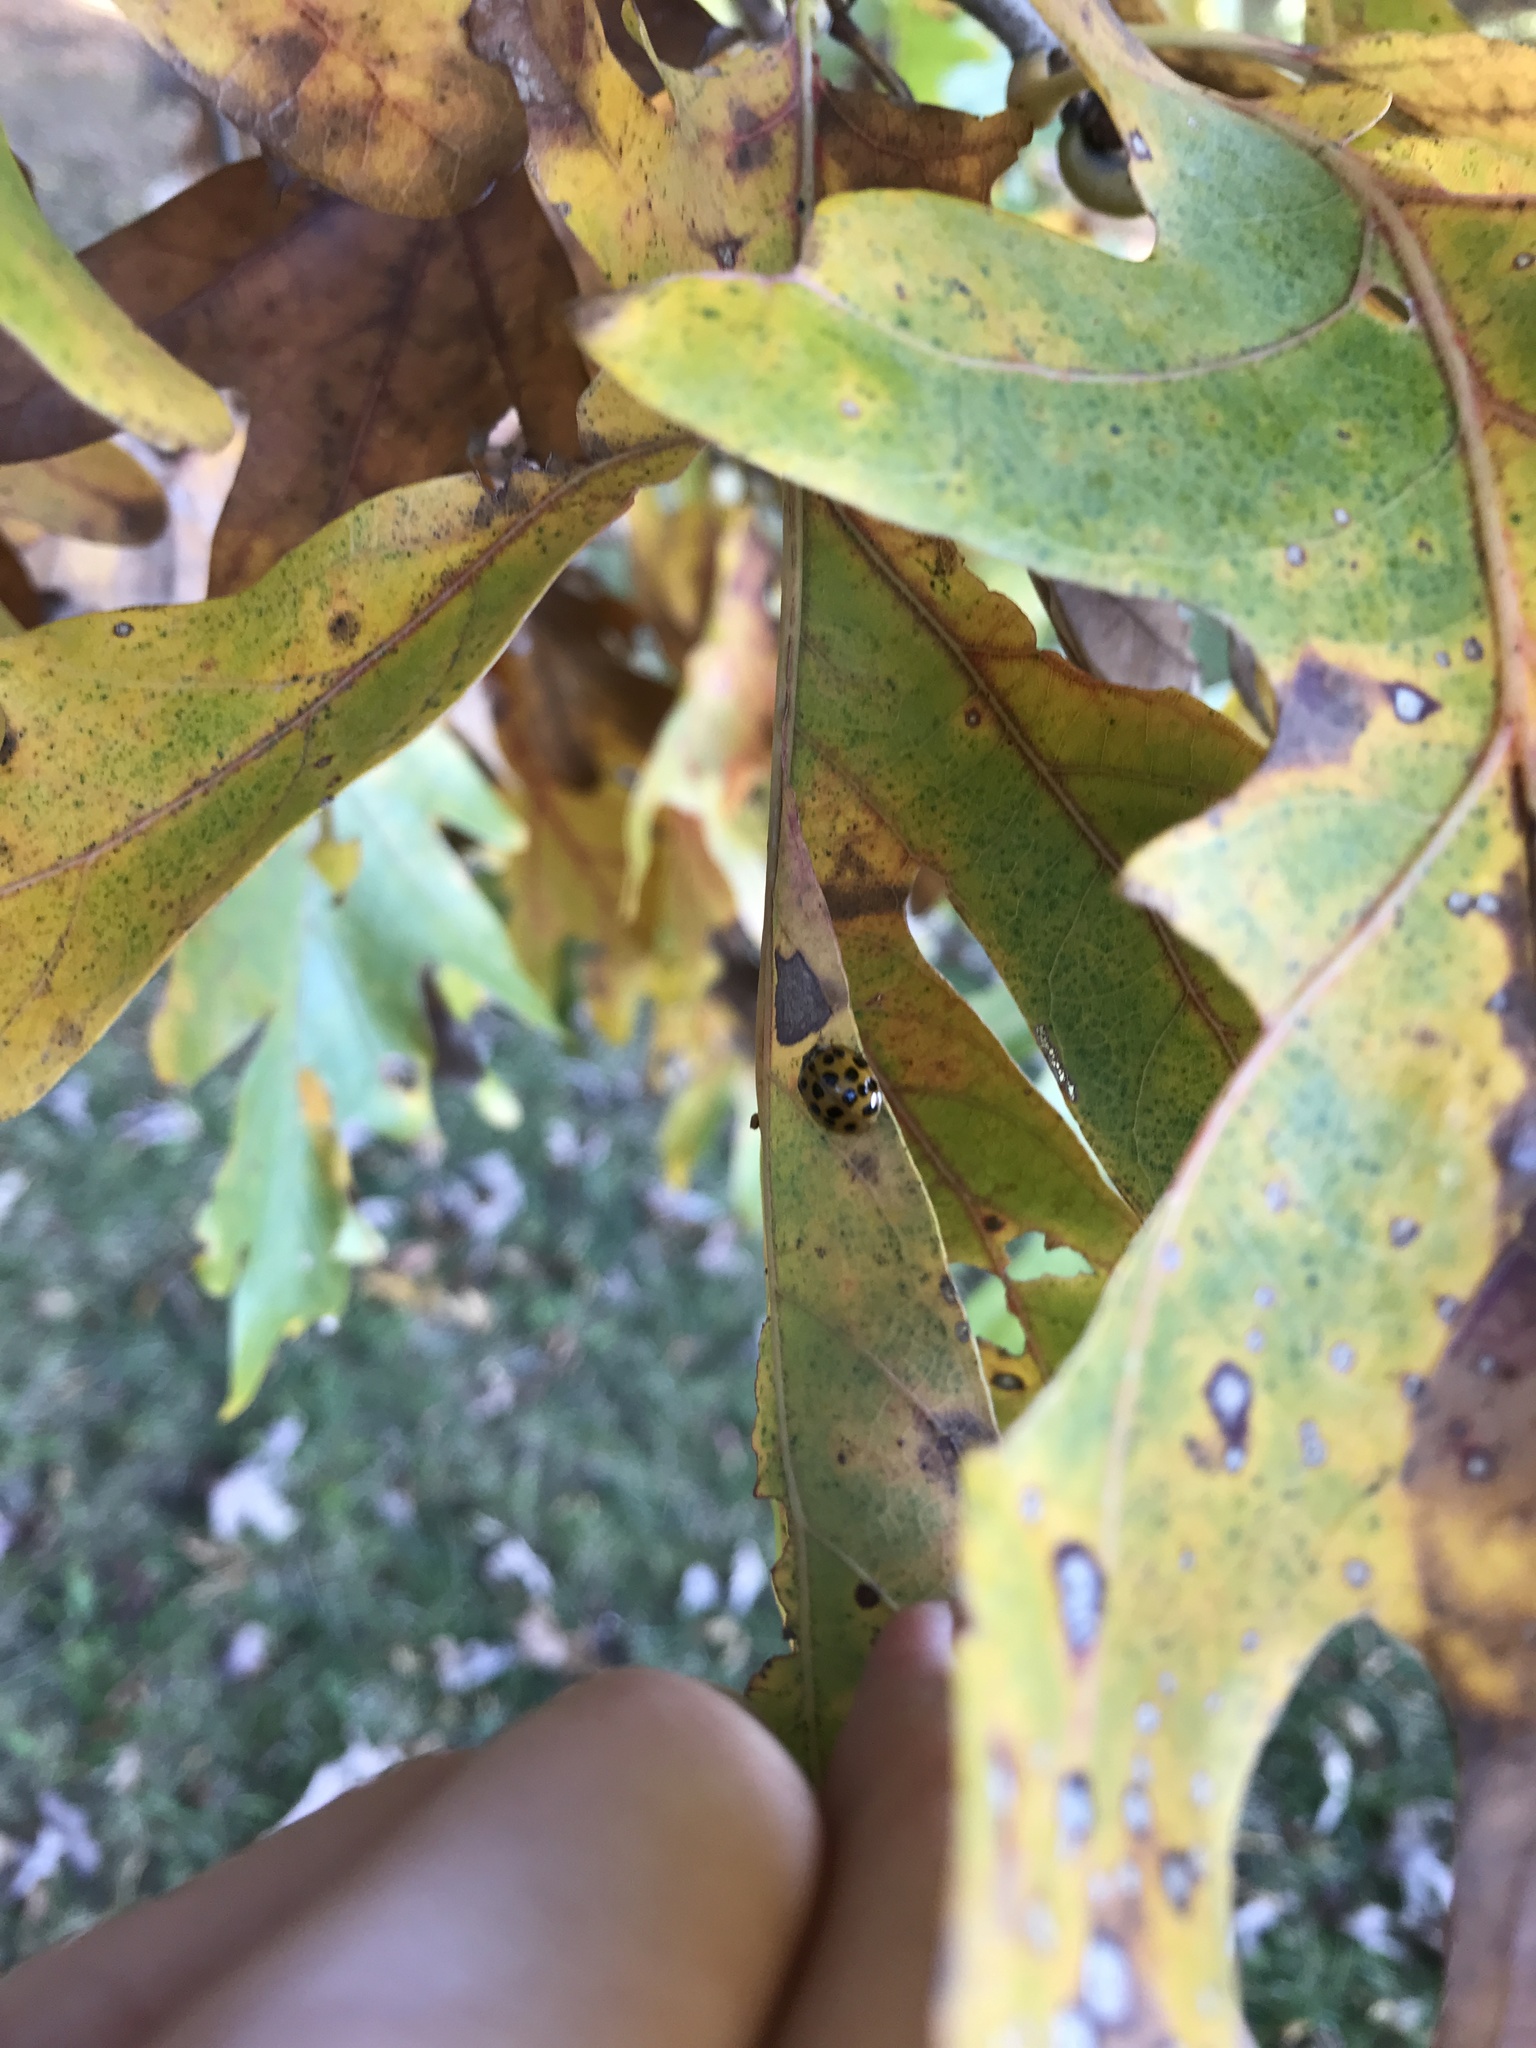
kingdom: Animalia
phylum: Arthropoda
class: Insecta
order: Coleoptera
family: Coccinellidae
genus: Harmonia
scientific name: Harmonia axyridis
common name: Harlequin ladybird
